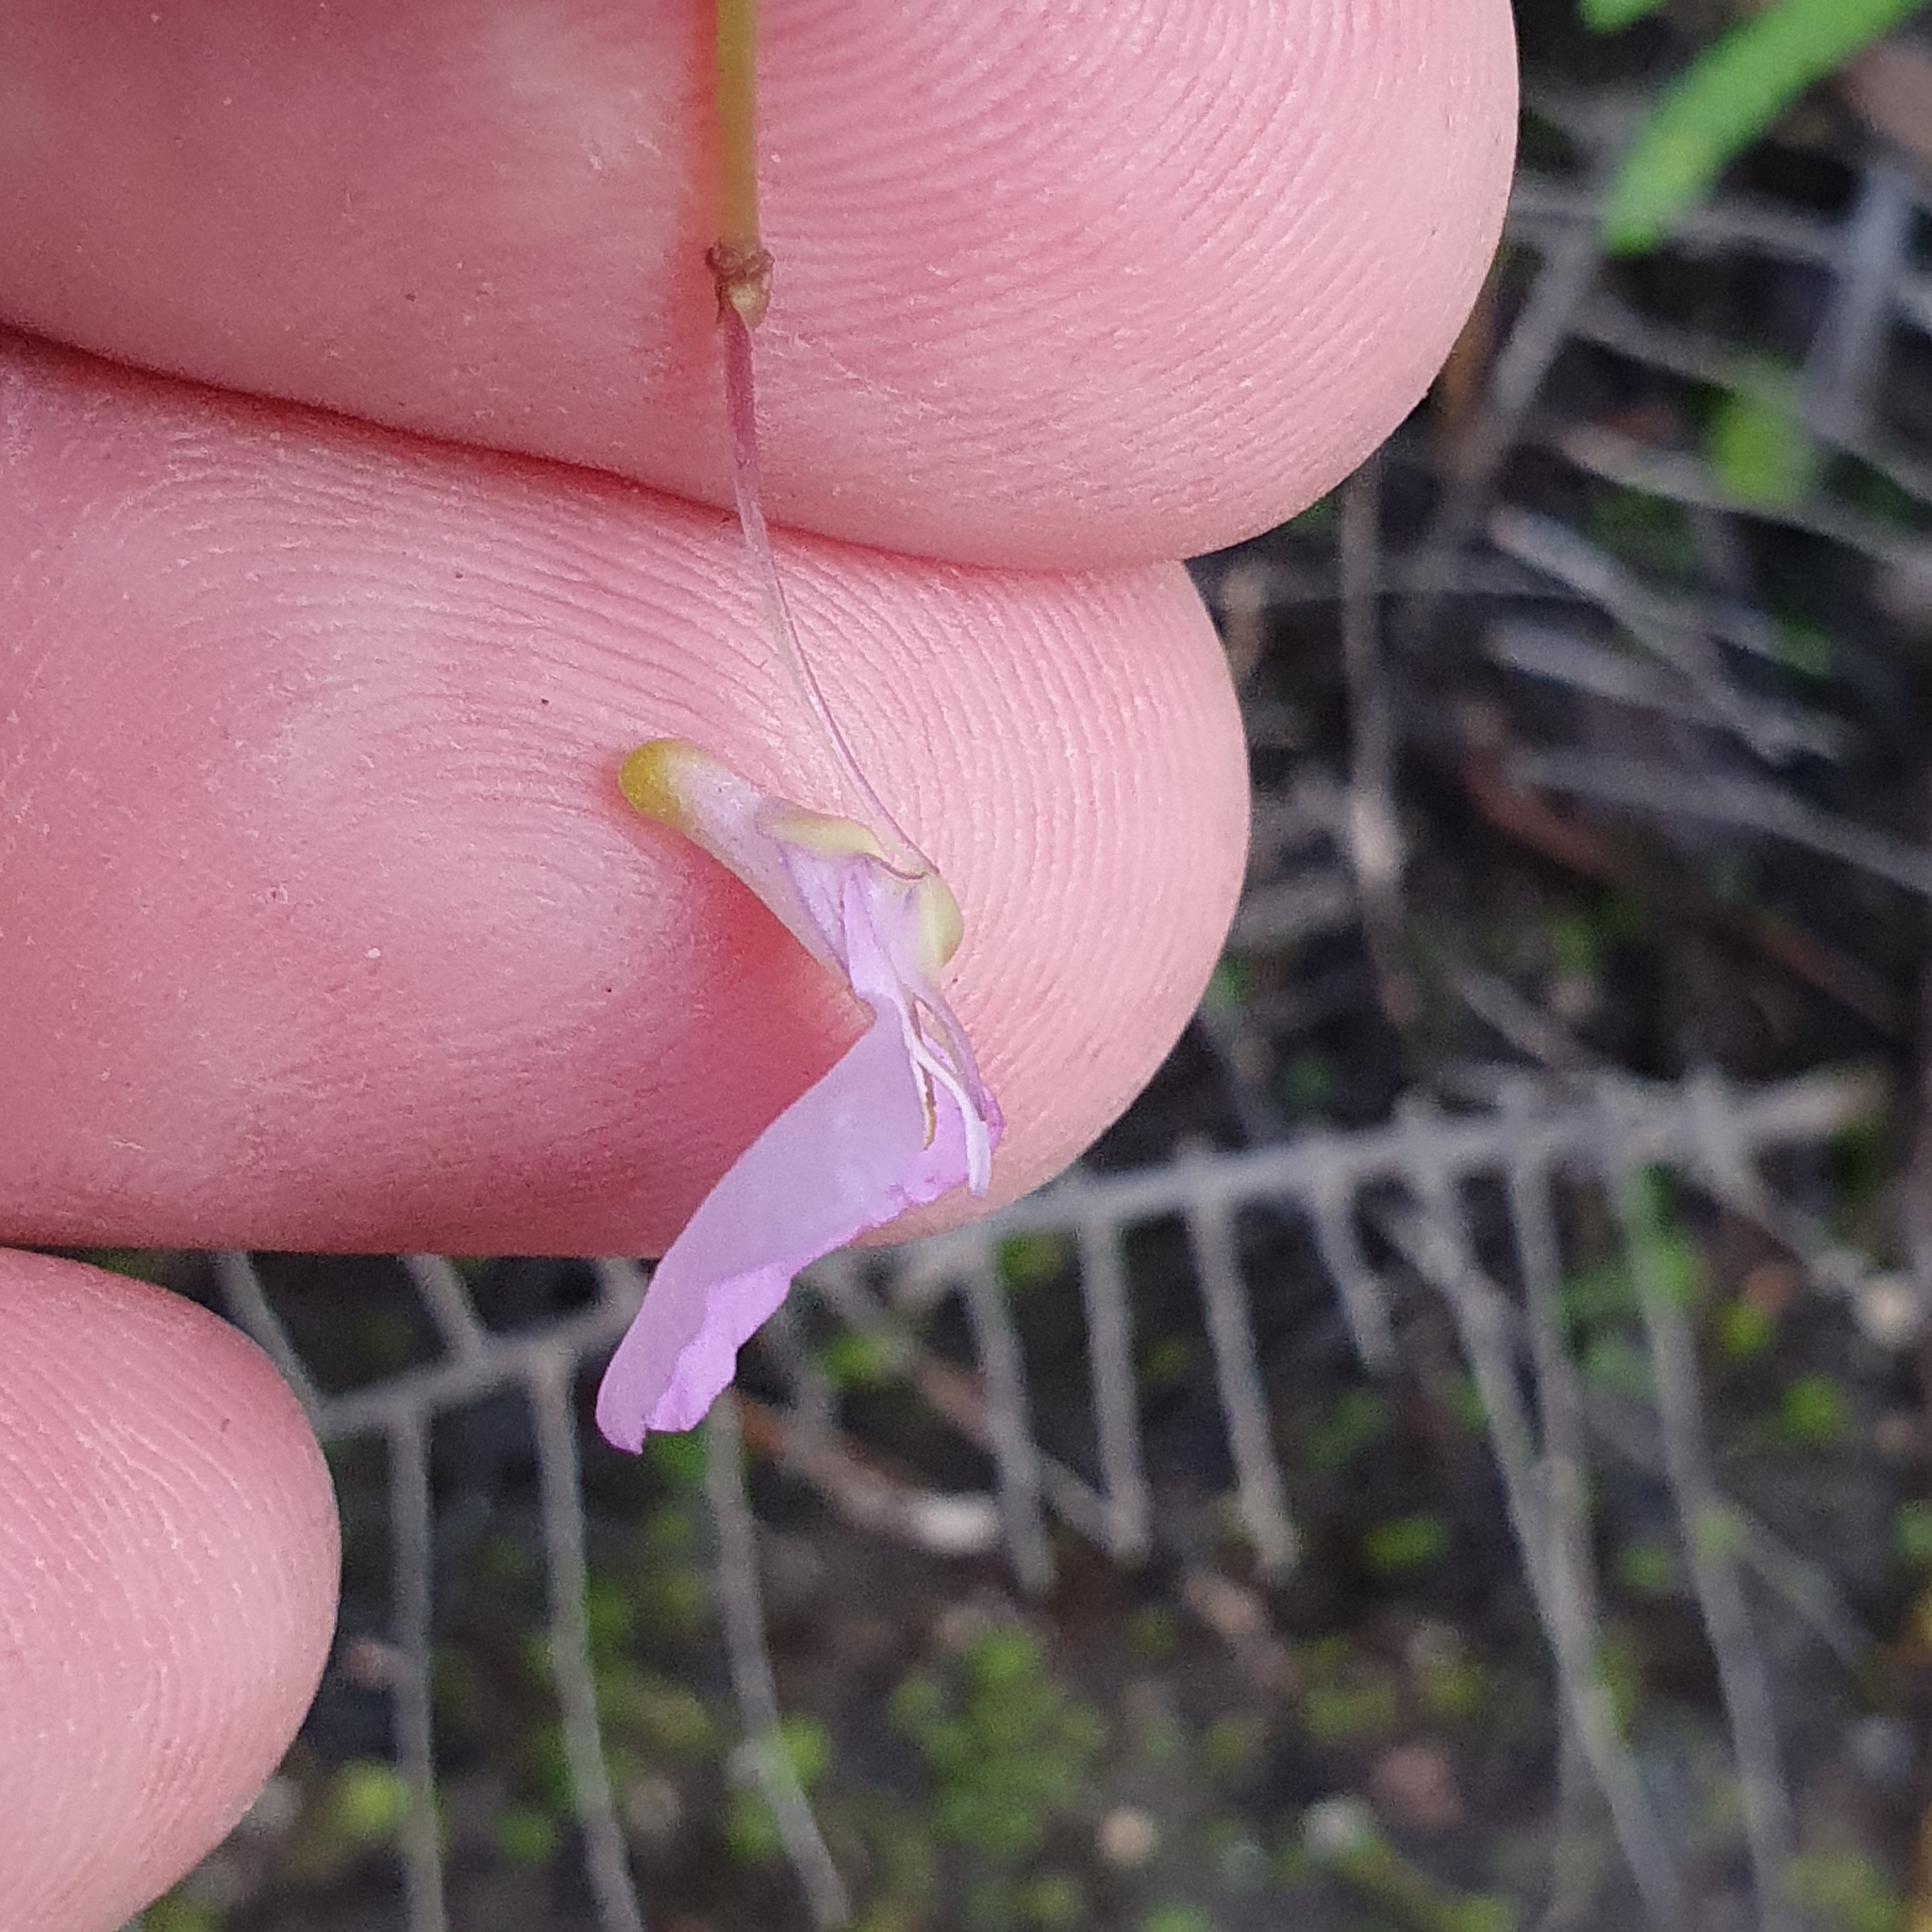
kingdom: Plantae
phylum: Tracheophyta
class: Magnoliopsida
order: Lamiales
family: Lentibulariaceae
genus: Utricularia
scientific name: Utricularia uniflora
